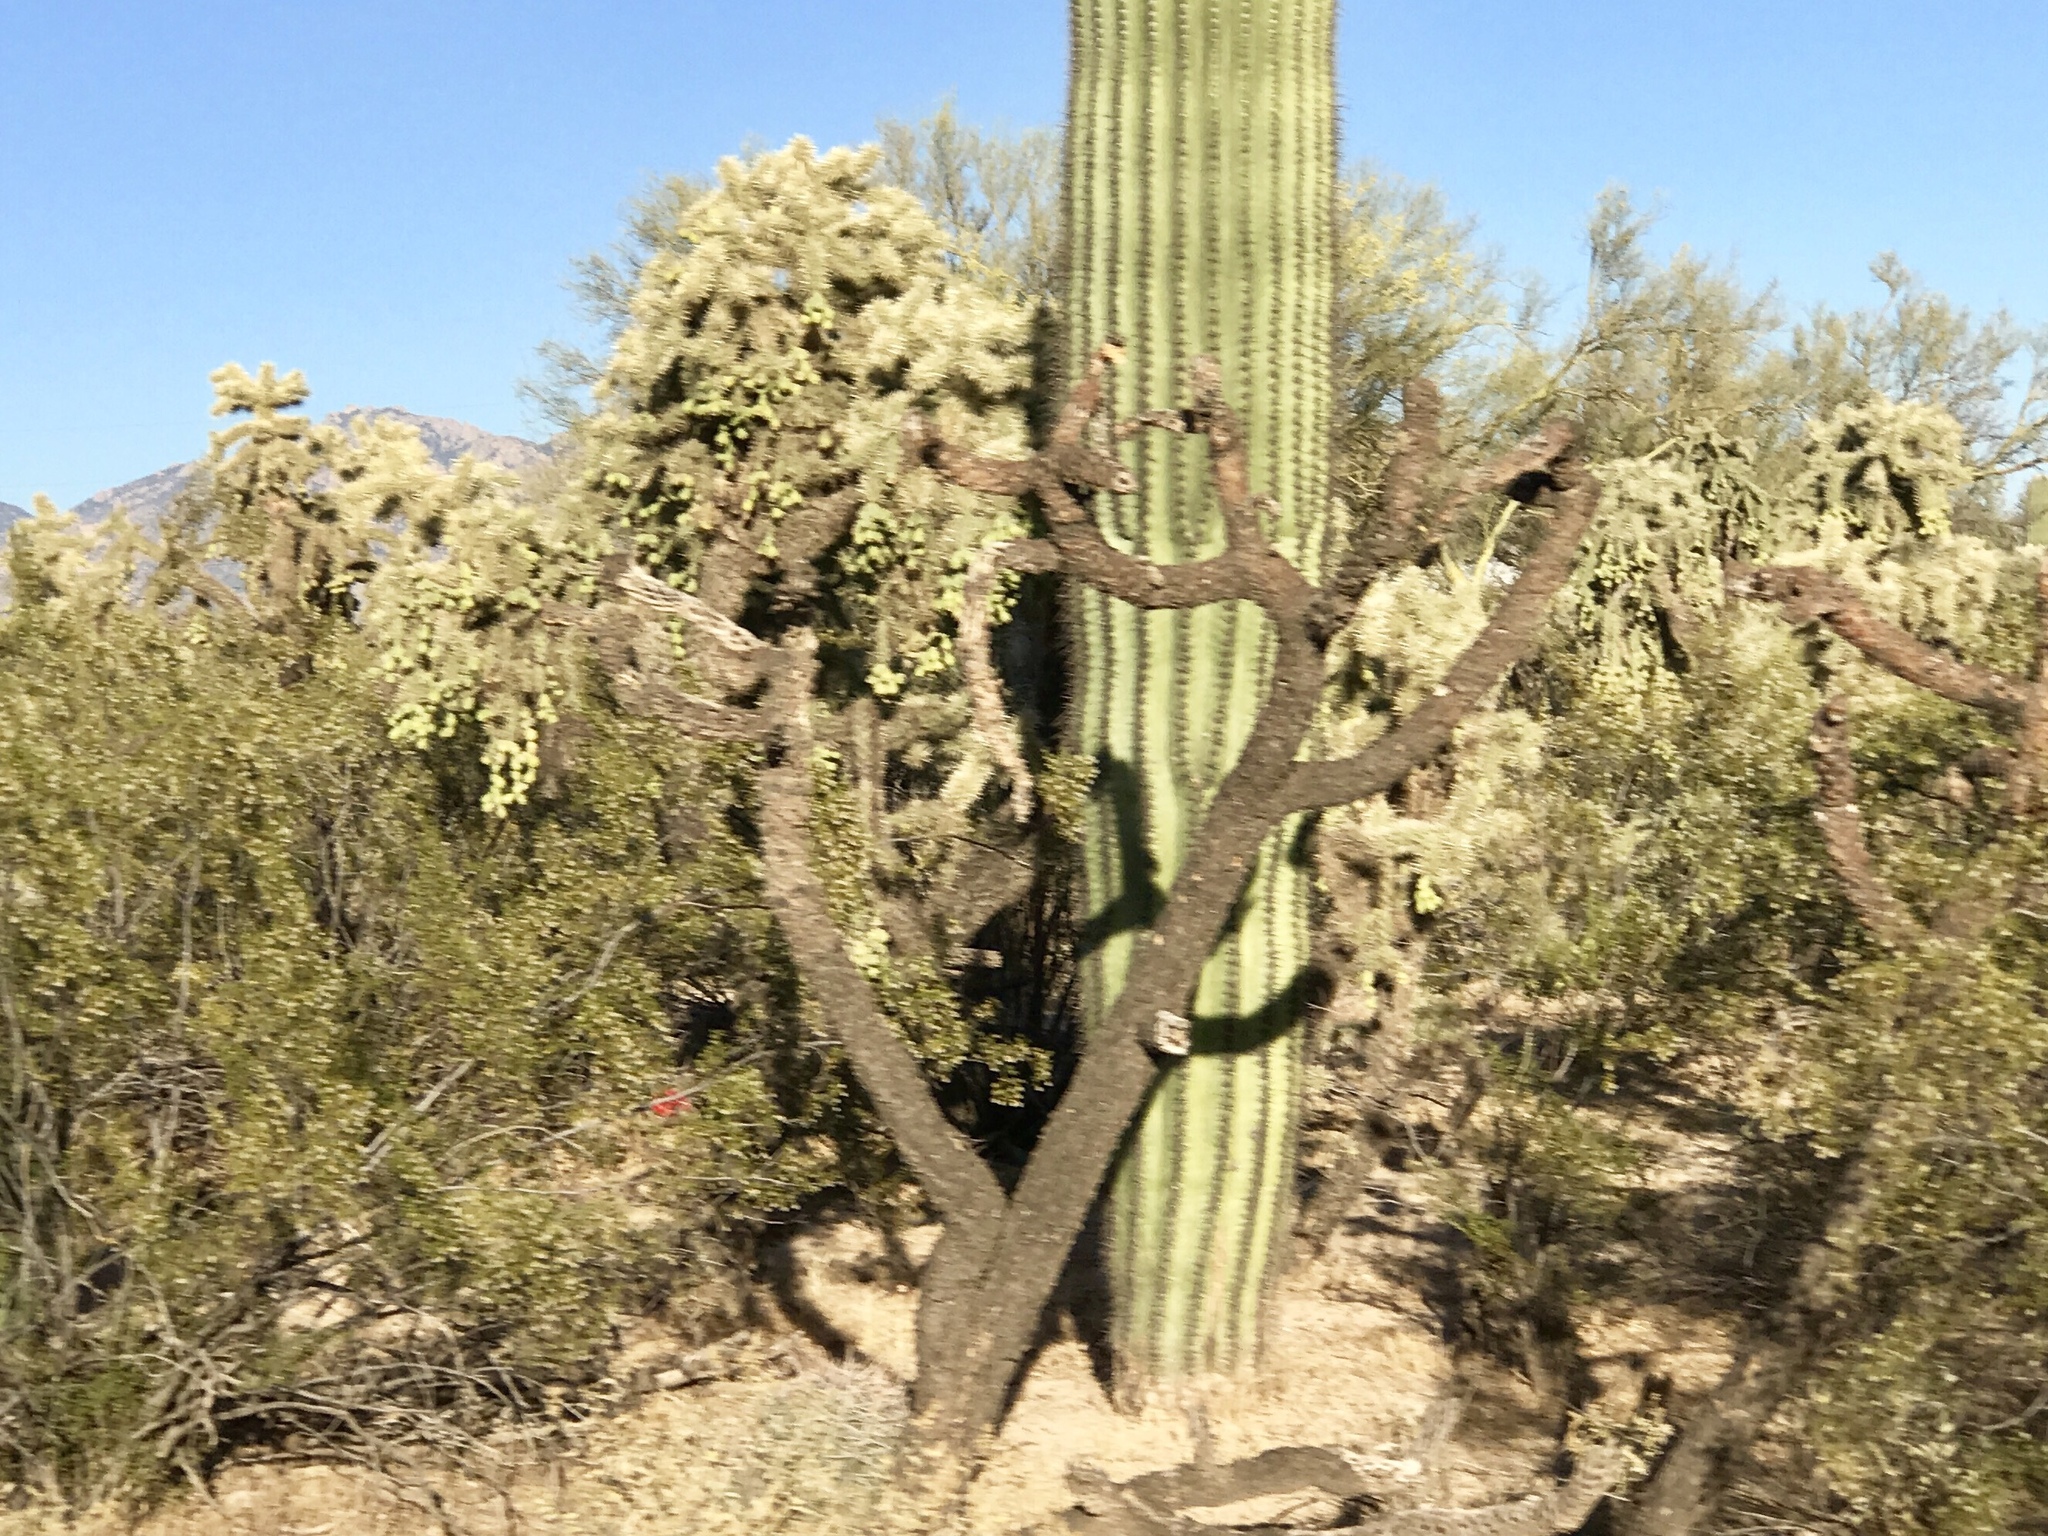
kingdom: Plantae
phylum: Tracheophyta
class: Magnoliopsida
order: Caryophyllales
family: Cactaceae
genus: Cylindropuntia
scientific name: Cylindropuntia fulgida
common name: Jumping cholla
